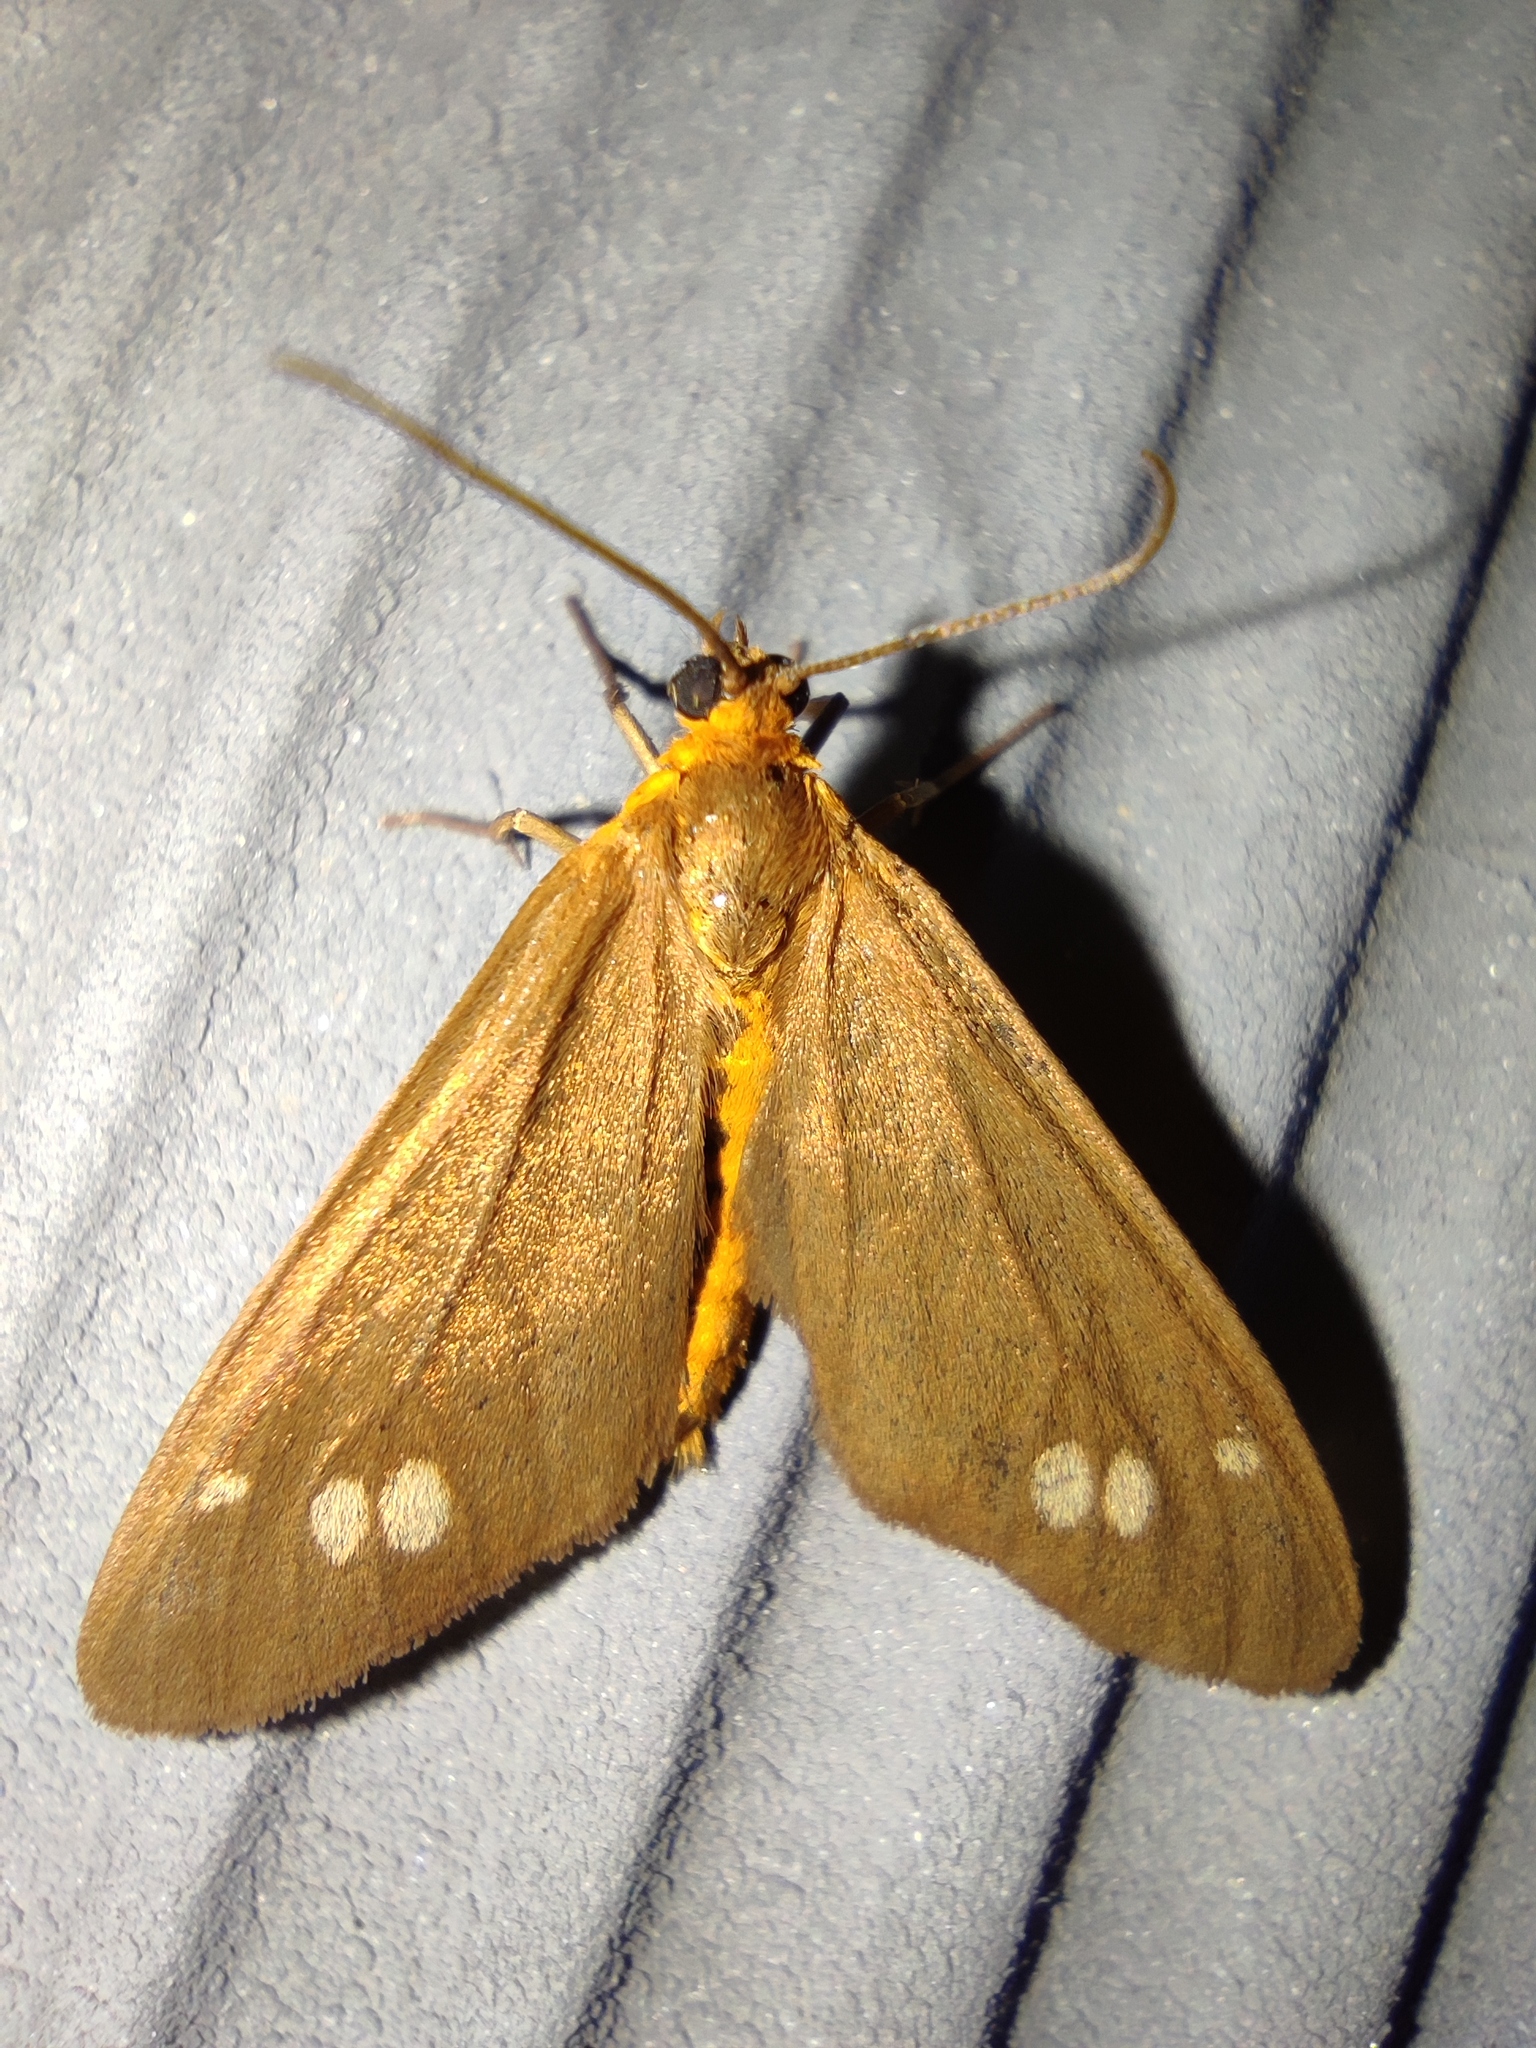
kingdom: Animalia
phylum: Arthropoda
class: Insecta
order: Lepidoptera
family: Erebidae
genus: Dysauxes
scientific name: Dysauxes ancilla
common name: The handmaid
